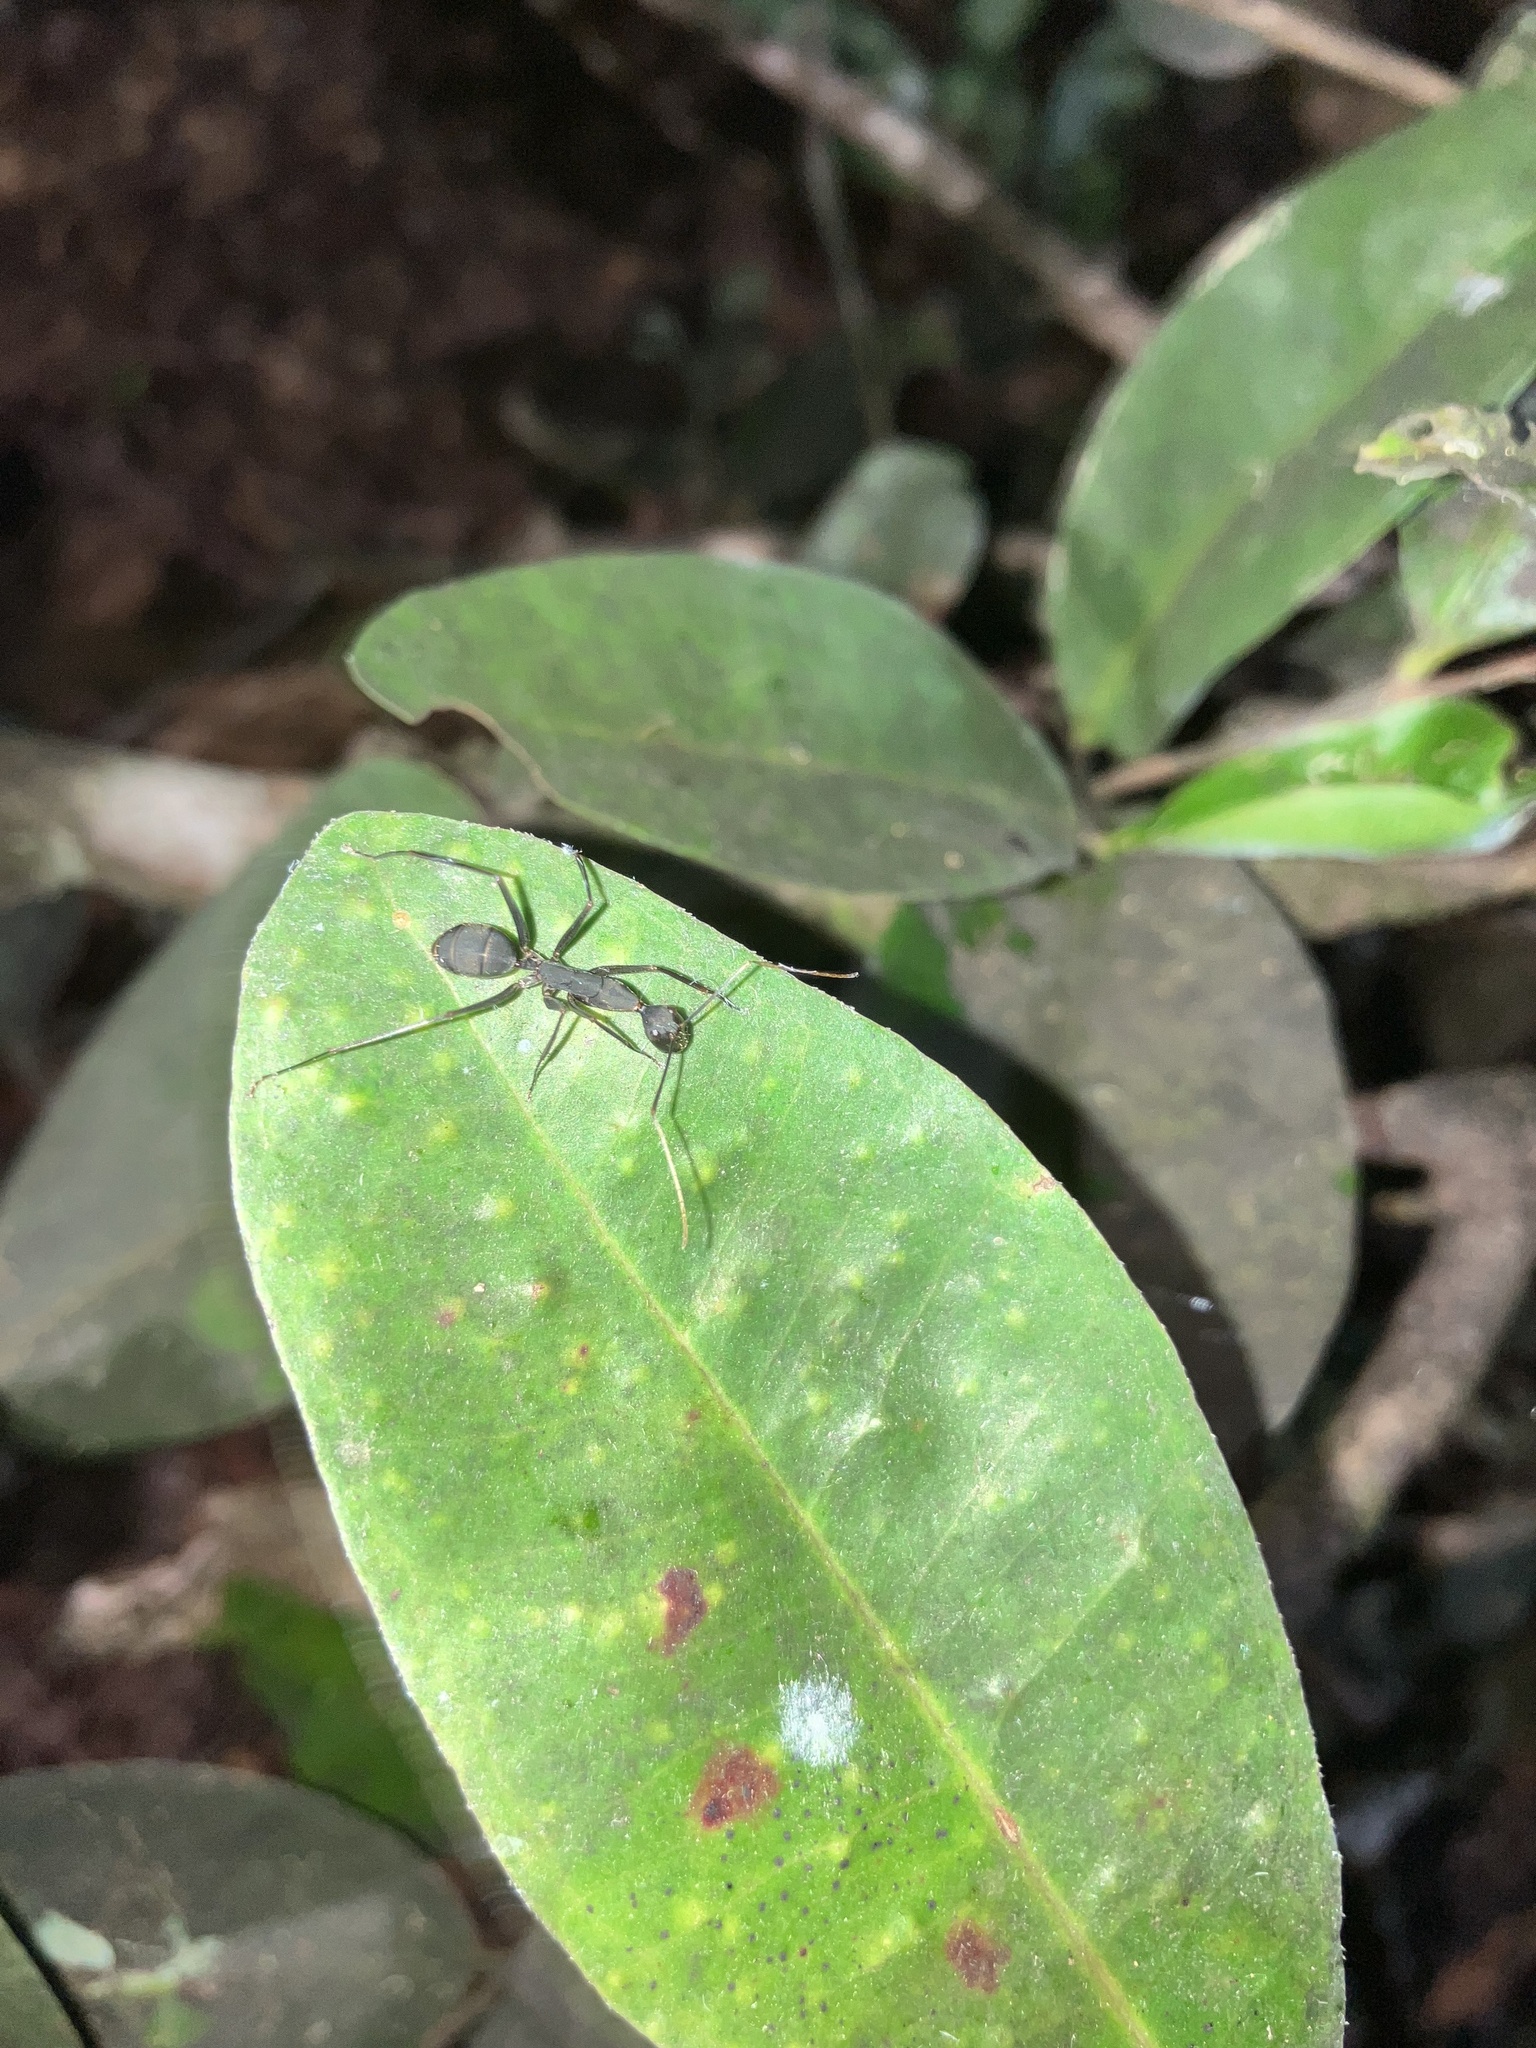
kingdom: Animalia
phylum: Arthropoda
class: Insecta
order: Hymenoptera
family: Formicidae
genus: Camponotus
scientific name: Camponotus angusticollis
